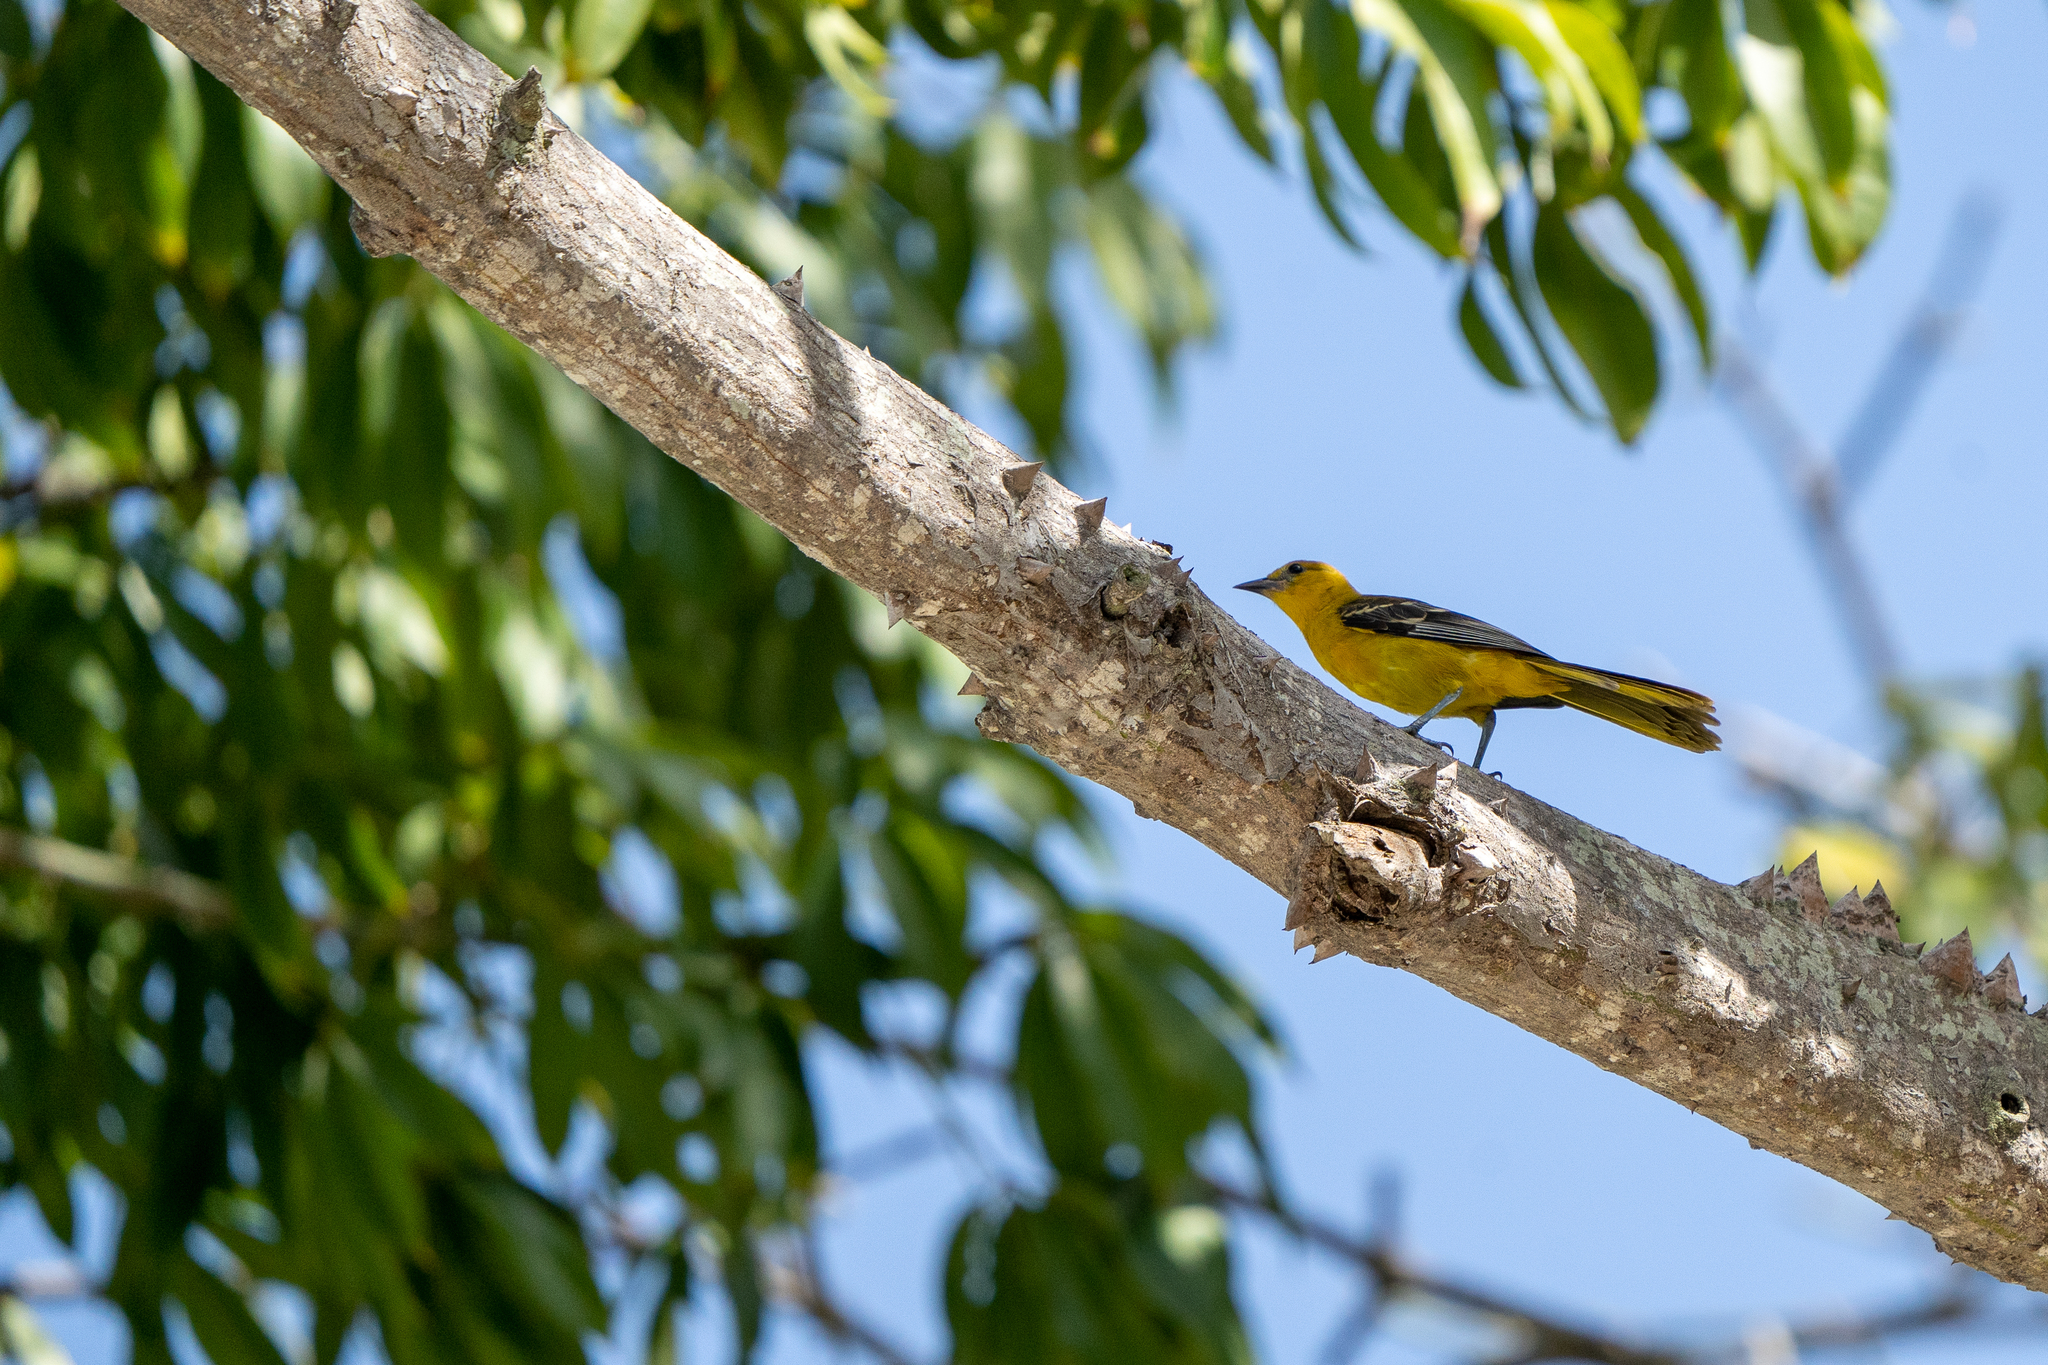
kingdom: Animalia
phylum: Chordata
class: Aves
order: Passeriformes
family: Icteridae
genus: Icterus
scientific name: Icterus mesomelas
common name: Yellow-tailed oriole
